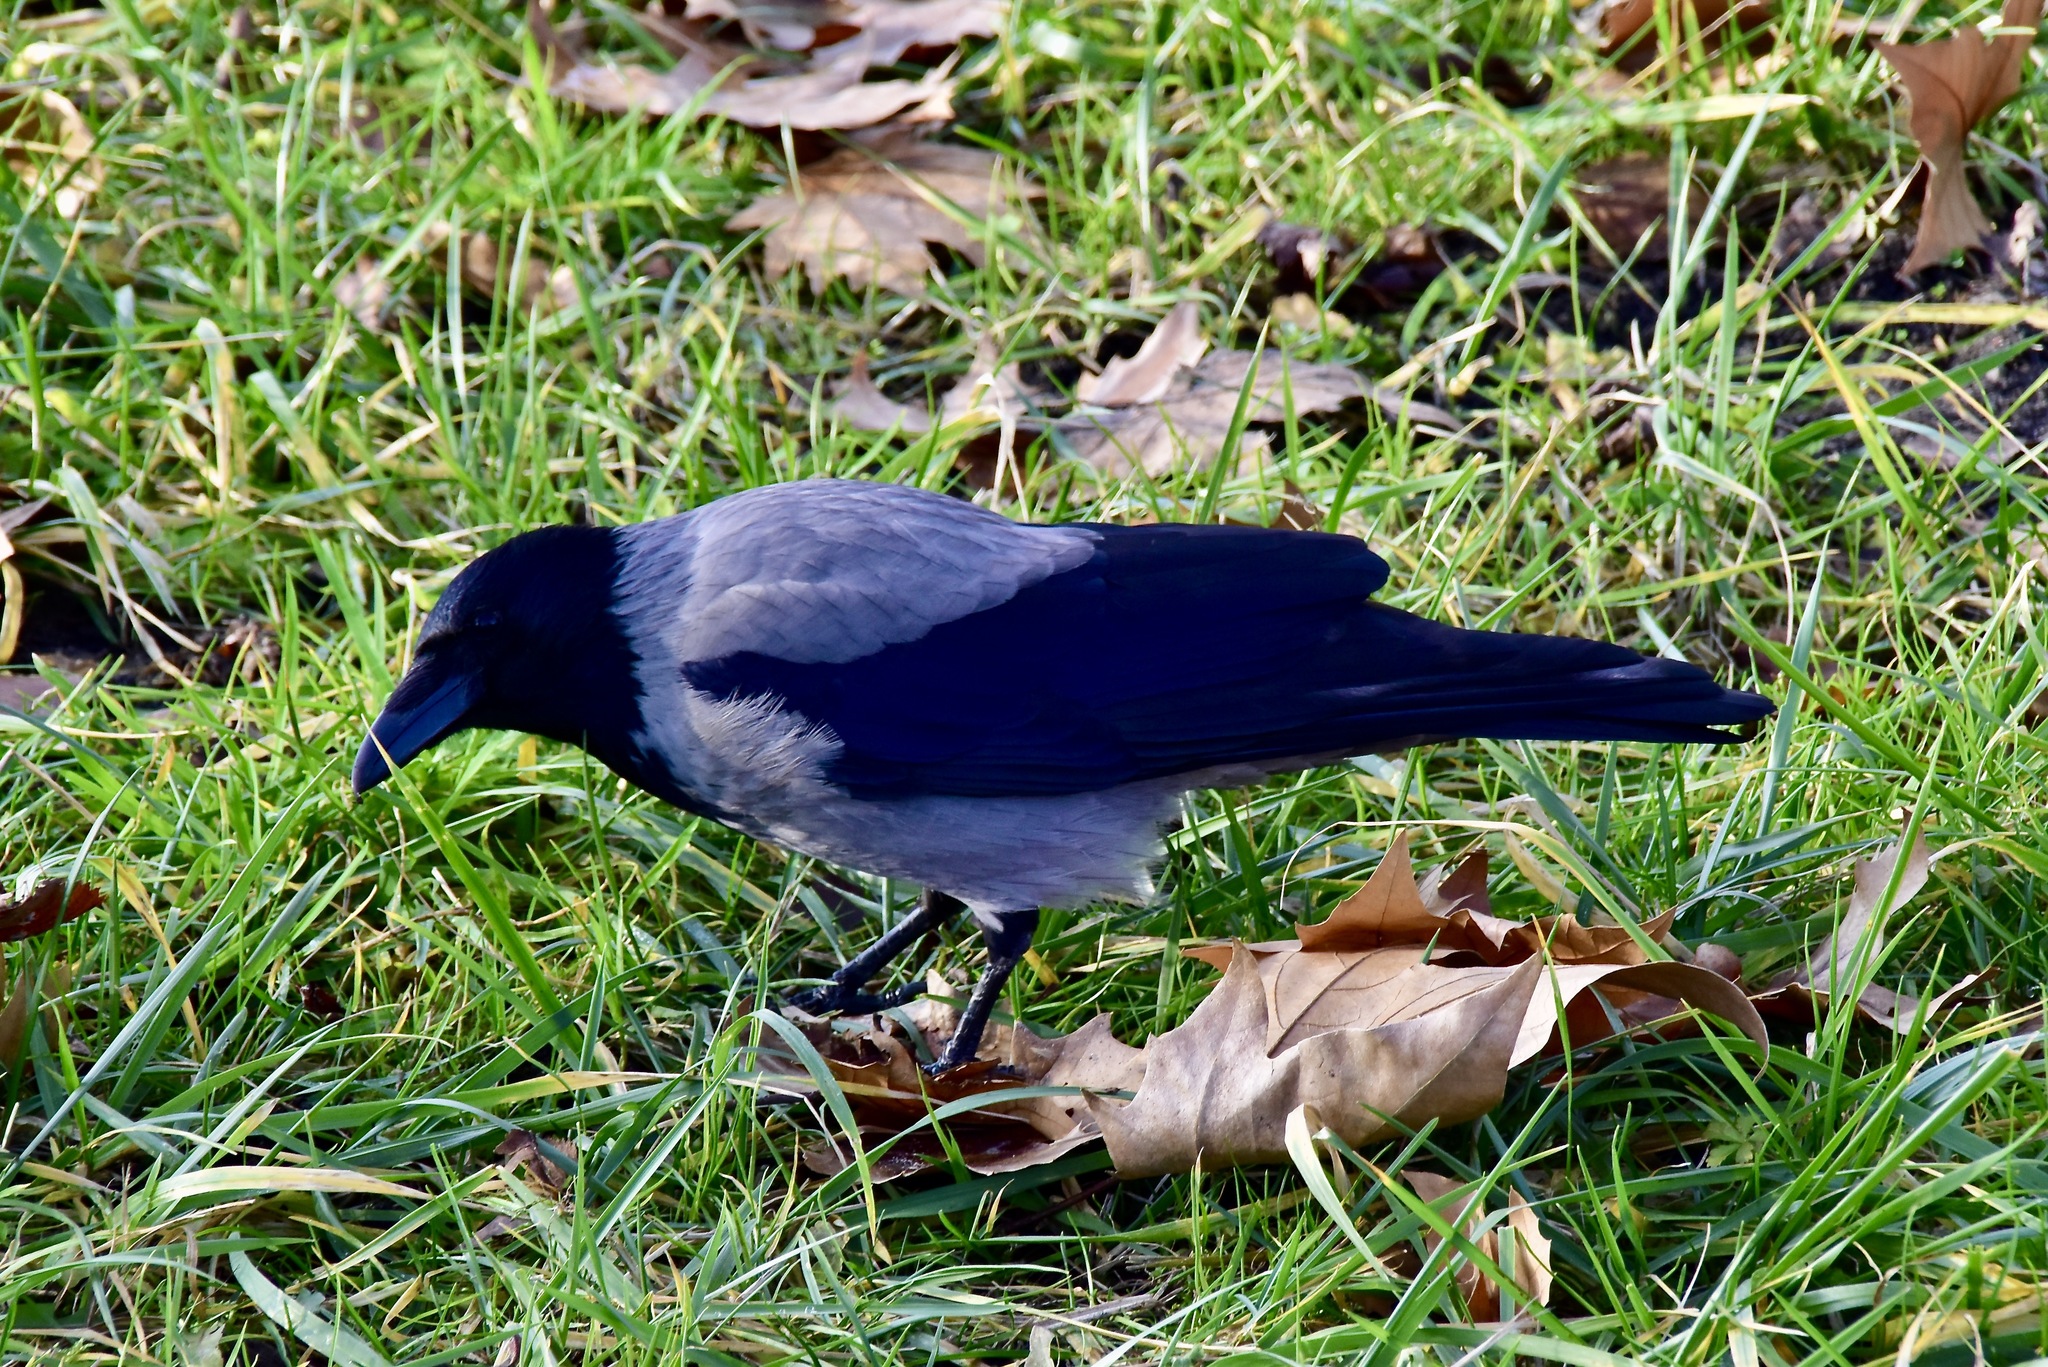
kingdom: Animalia
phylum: Chordata
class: Aves
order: Passeriformes
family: Corvidae
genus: Corvus
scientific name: Corvus cornix
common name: Hooded crow
